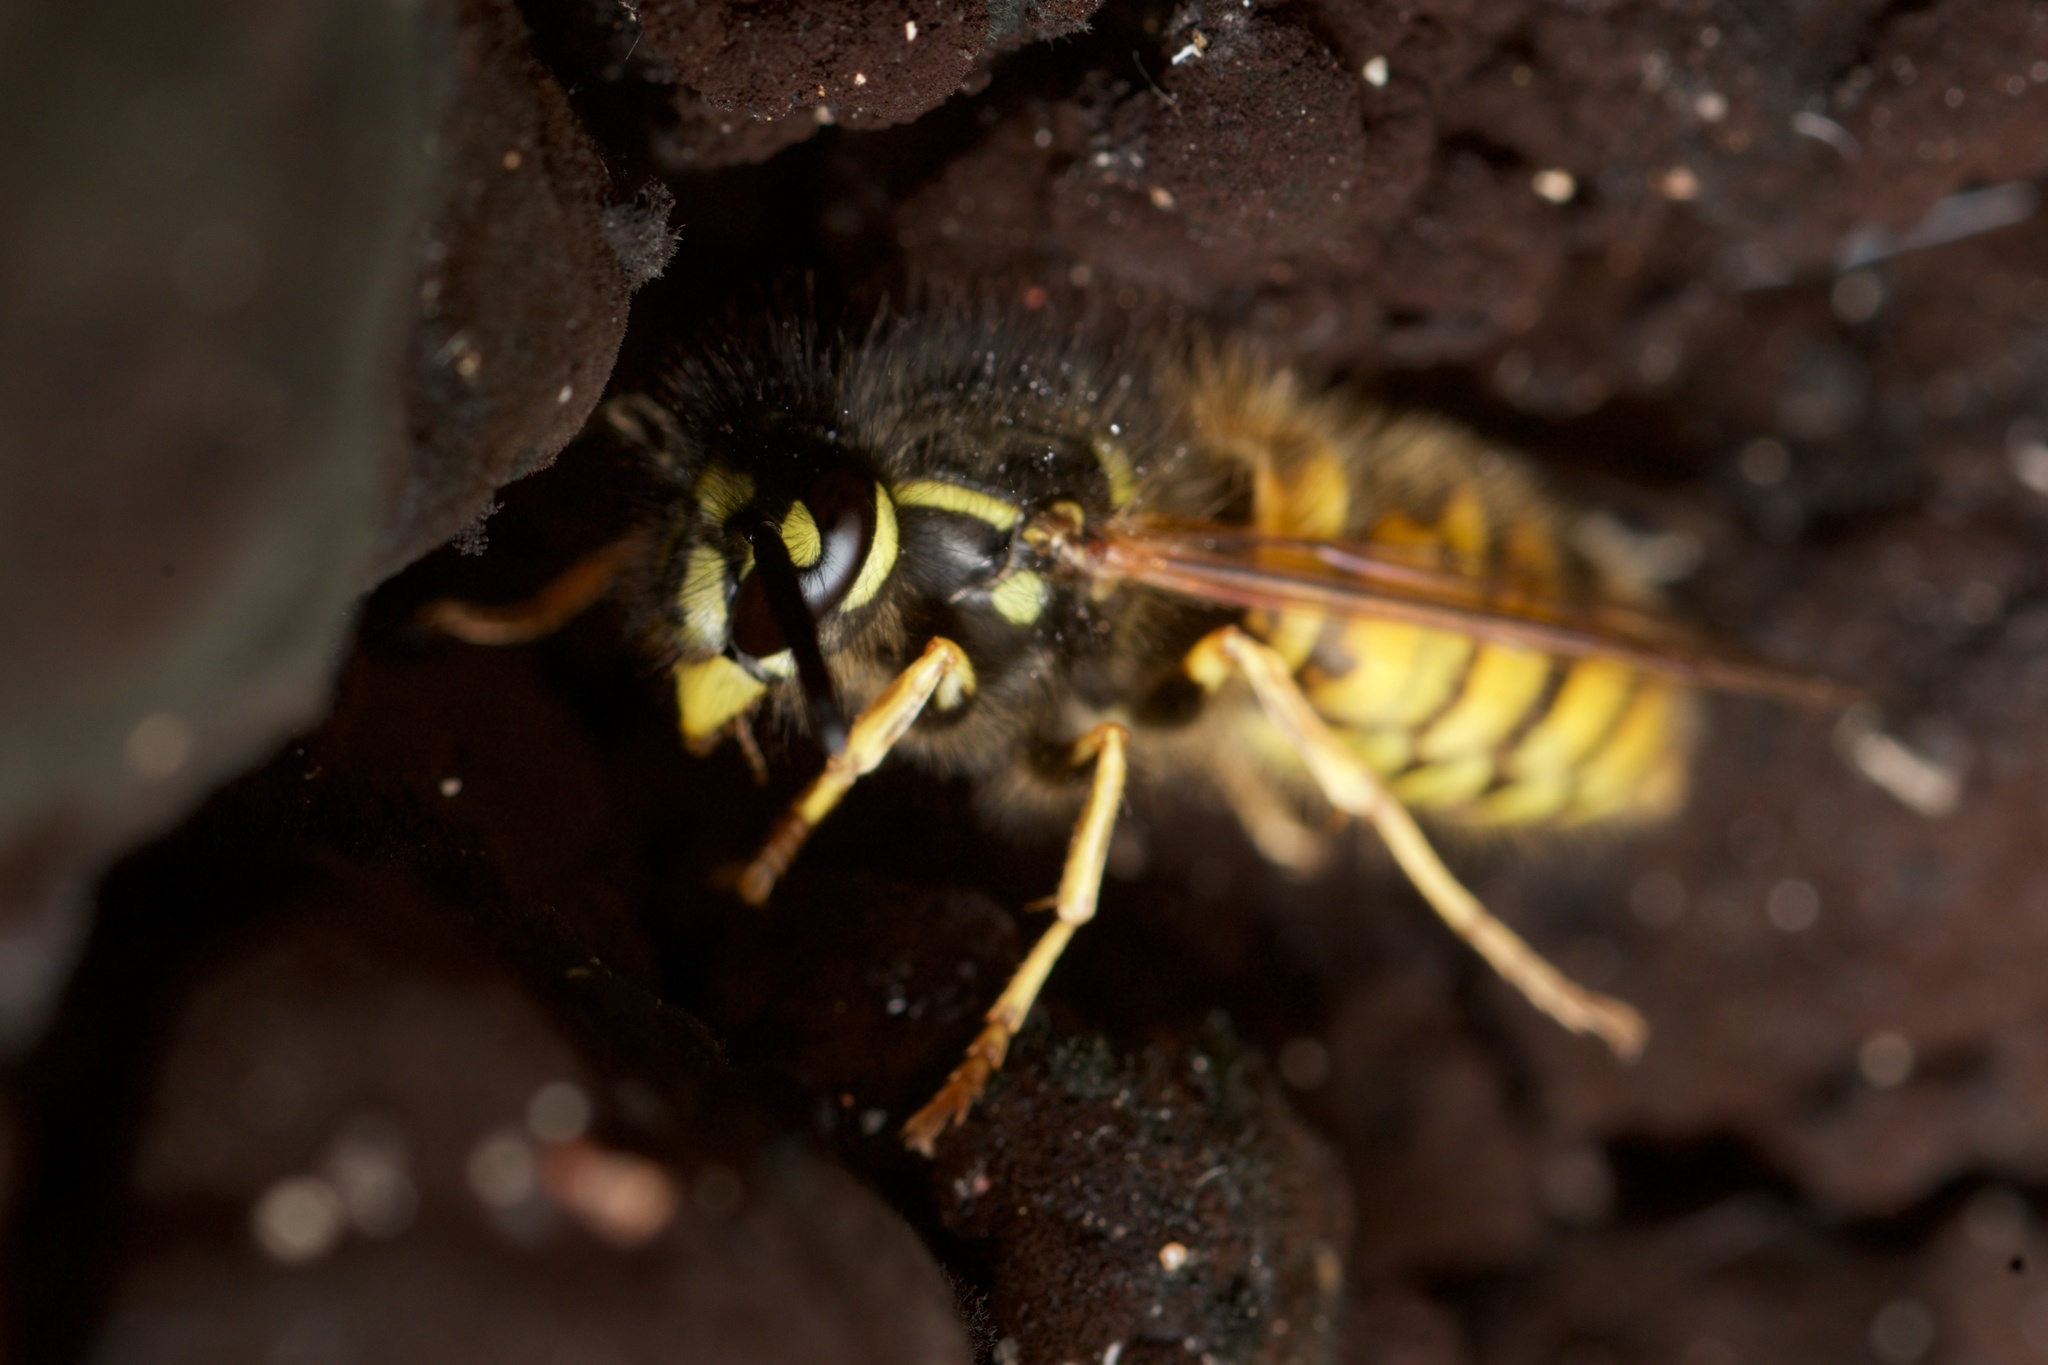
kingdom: Animalia
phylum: Arthropoda
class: Insecta
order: Hymenoptera
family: Vespidae
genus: Vespula
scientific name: Vespula vulgaris
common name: Common wasp
